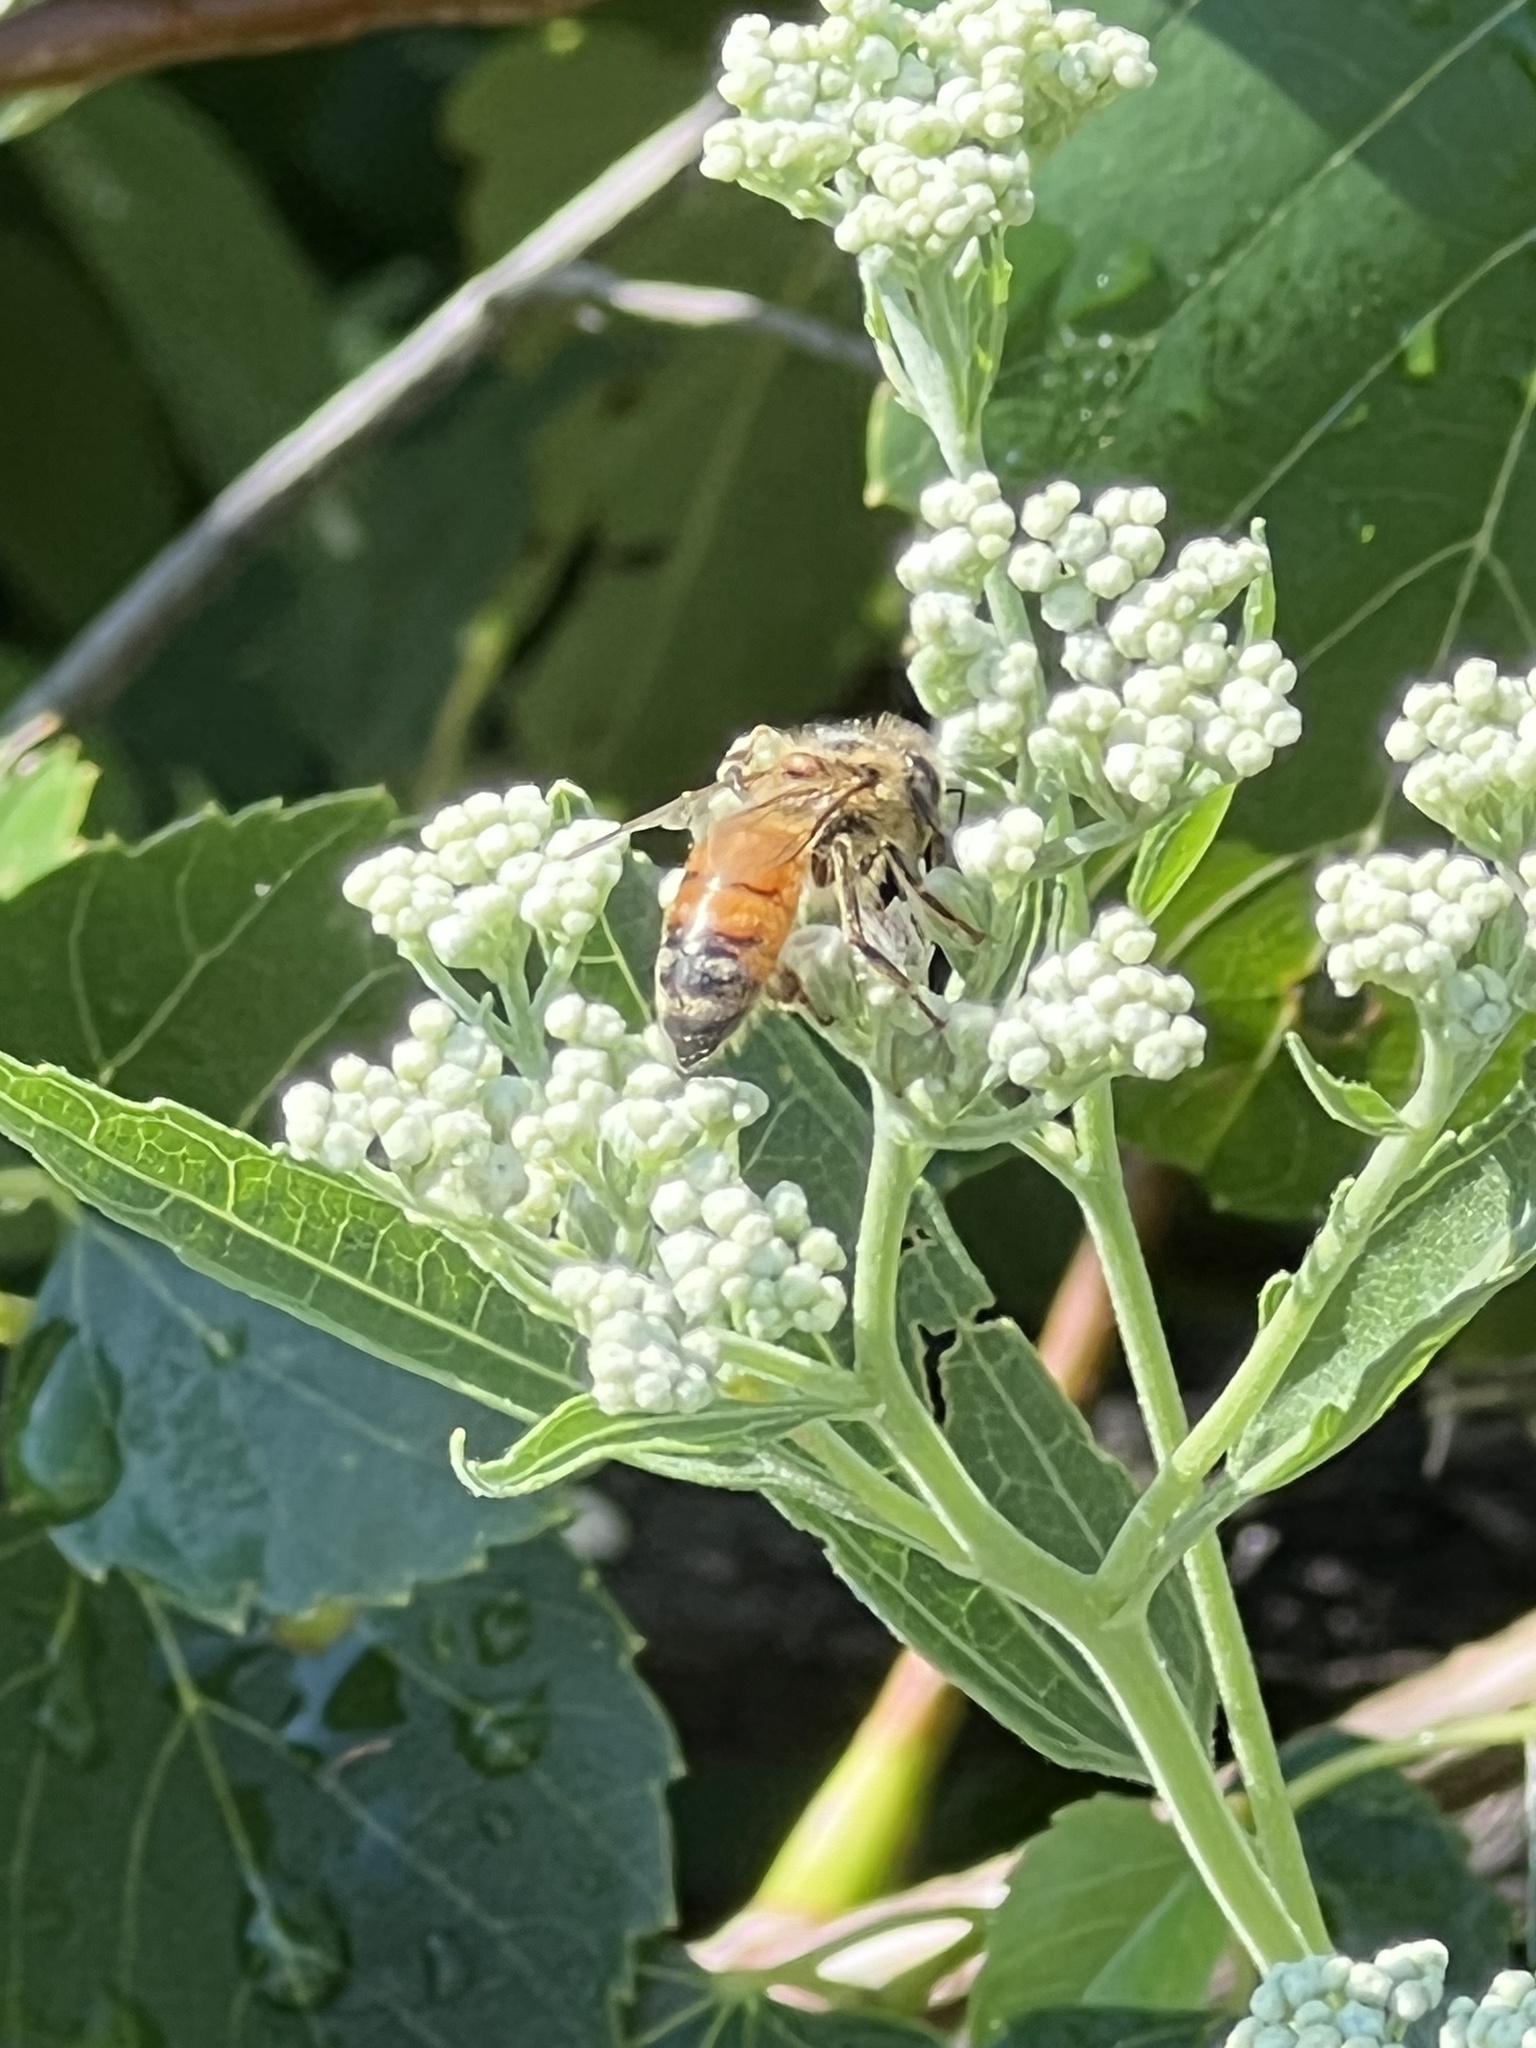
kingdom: Animalia
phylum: Arthropoda
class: Insecta
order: Hymenoptera
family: Apidae
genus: Apis
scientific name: Apis mellifera
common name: Honey bee
